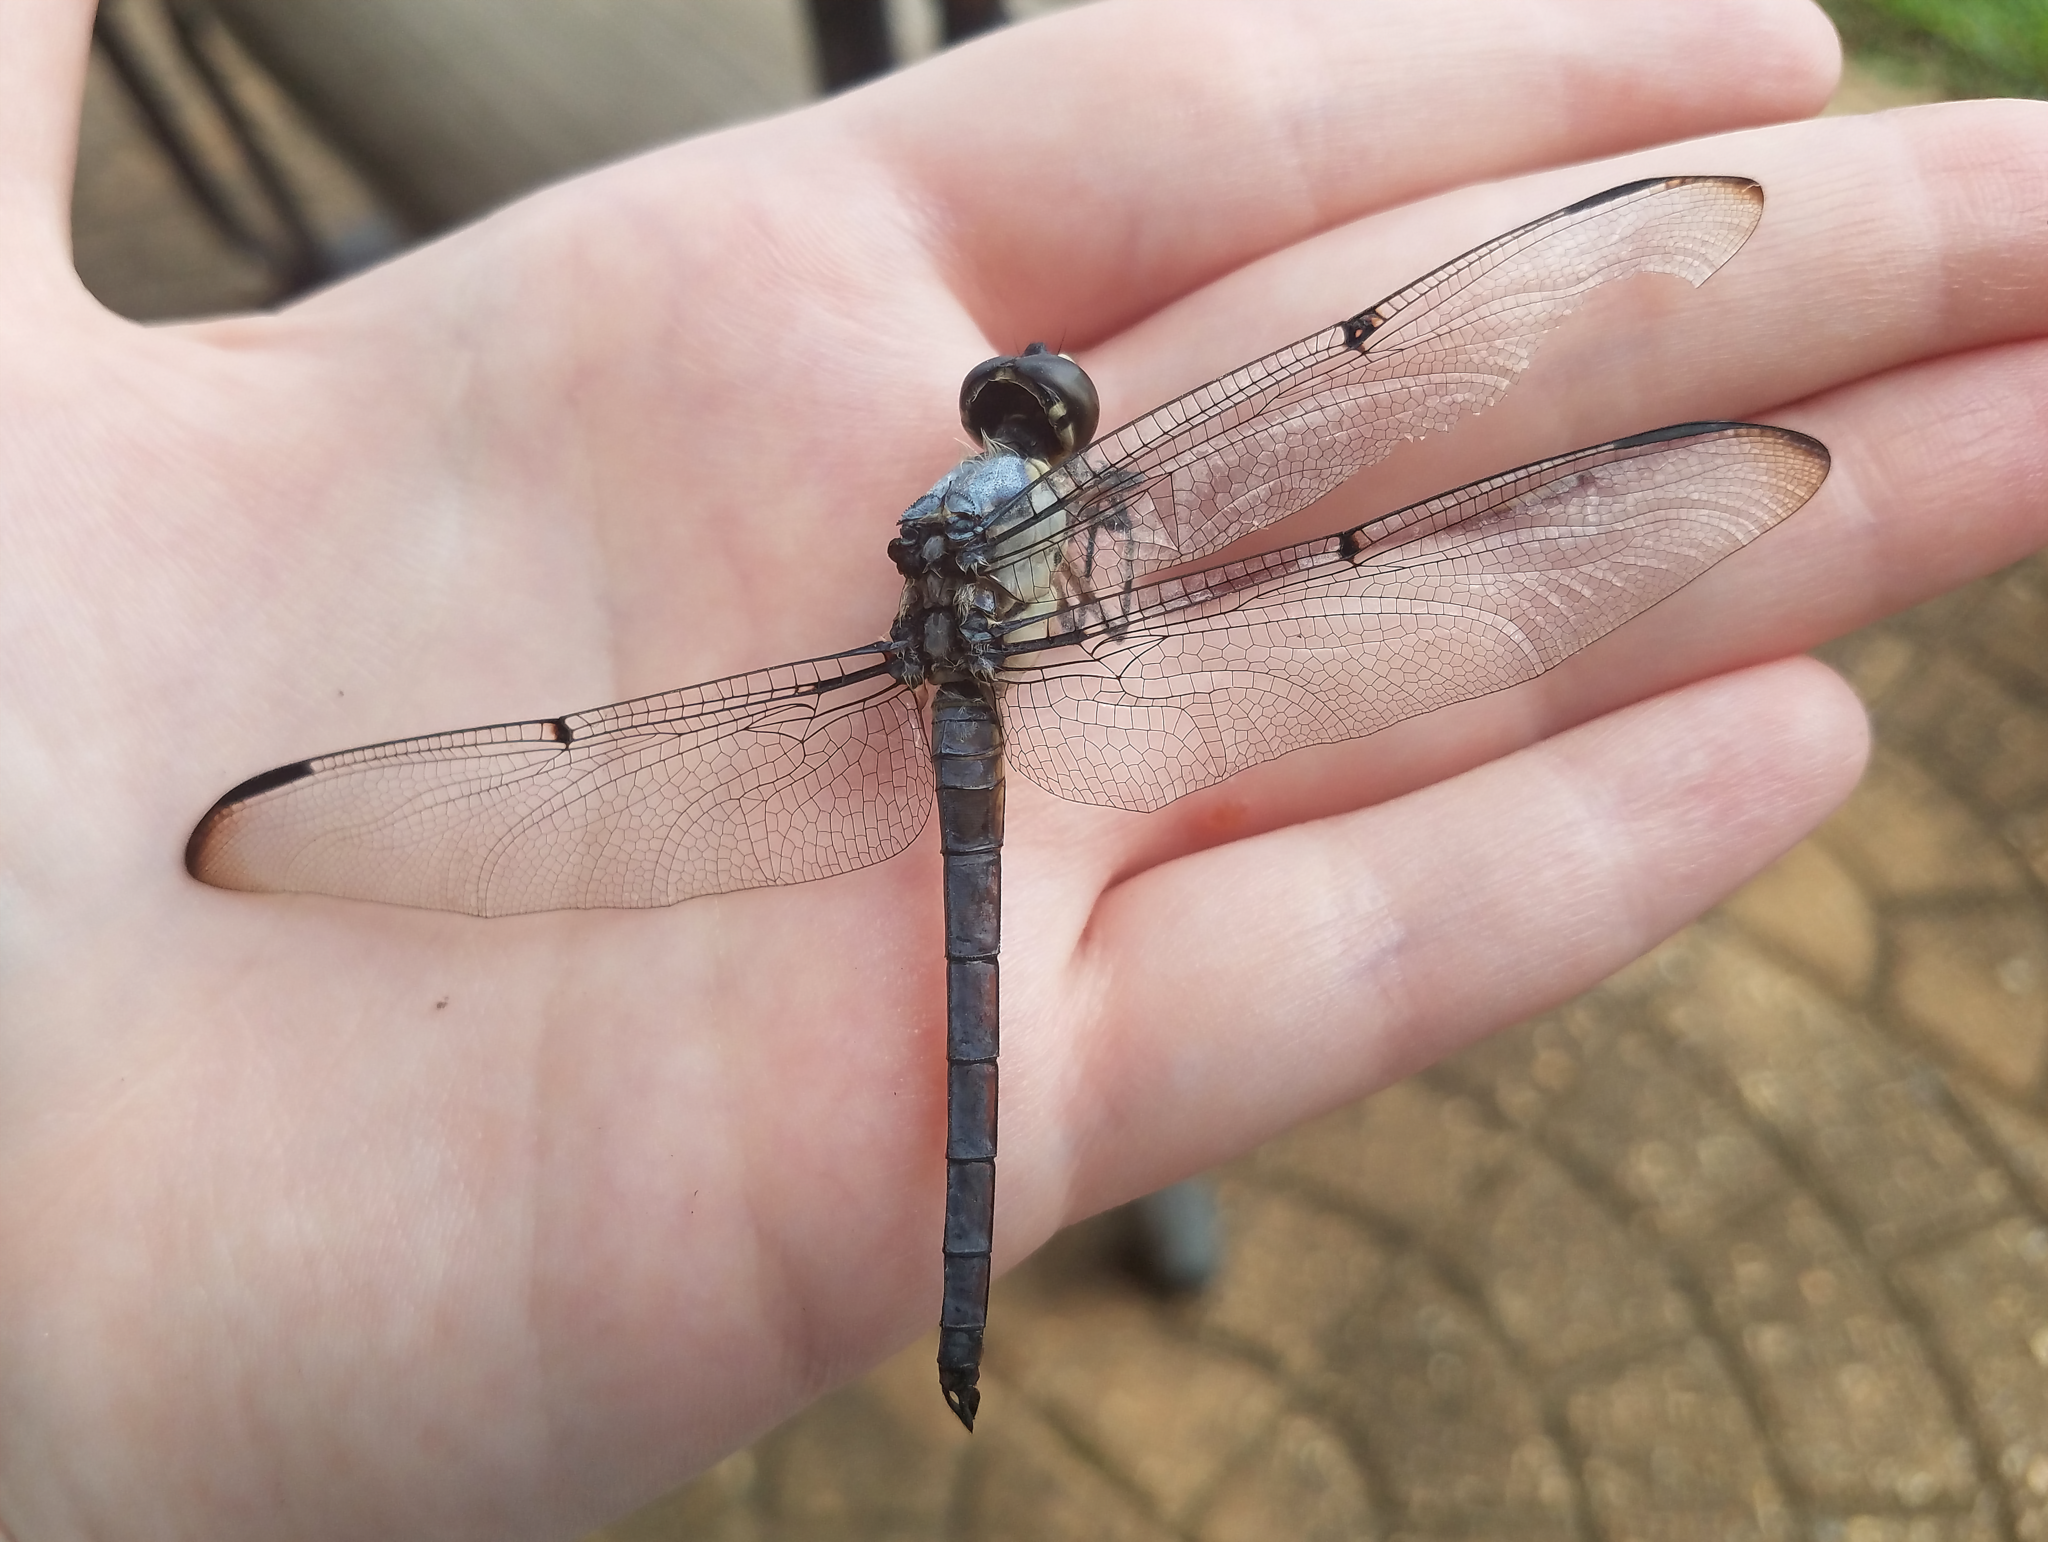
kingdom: Animalia
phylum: Arthropoda
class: Insecta
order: Odonata
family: Libellulidae
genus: Libellula
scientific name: Libellula vibrans
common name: Great blue skimmer
